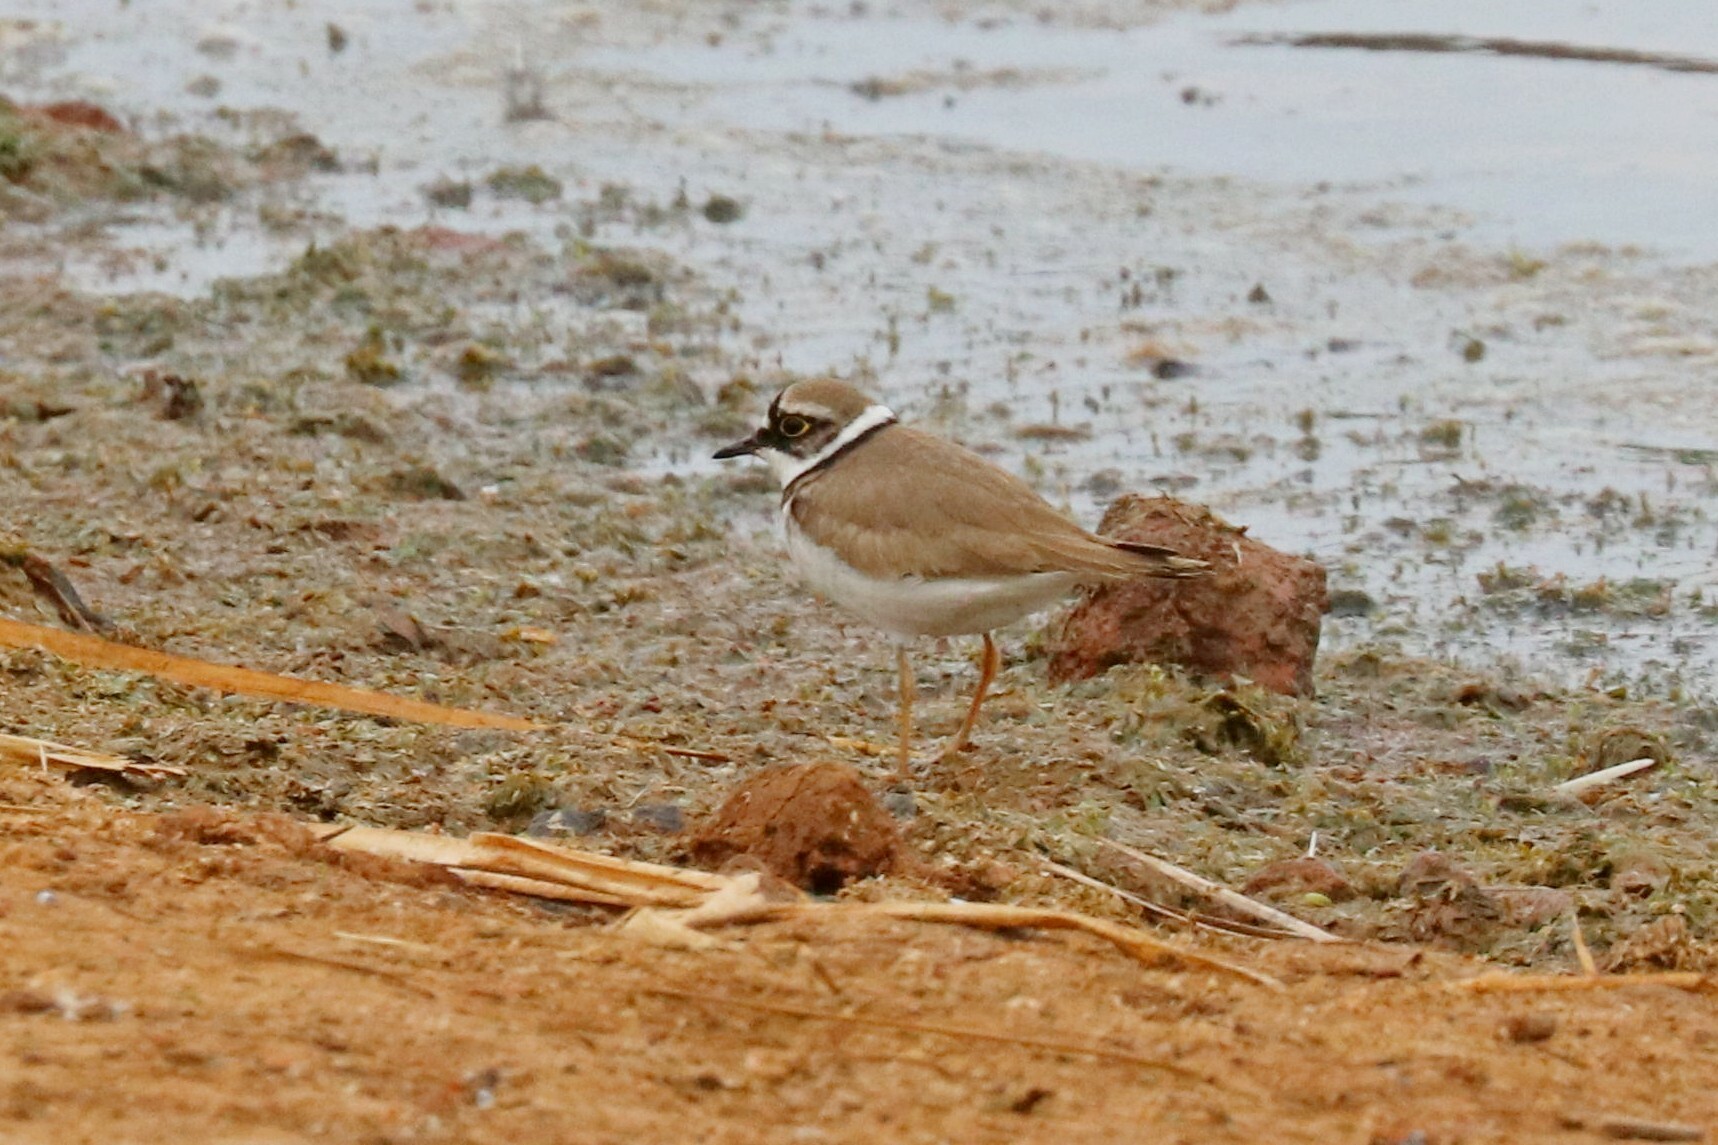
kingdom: Animalia
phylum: Chordata
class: Aves
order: Charadriiformes
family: Charadriidae
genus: Charadrius
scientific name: Charadrius dubius
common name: Little ringed plover
